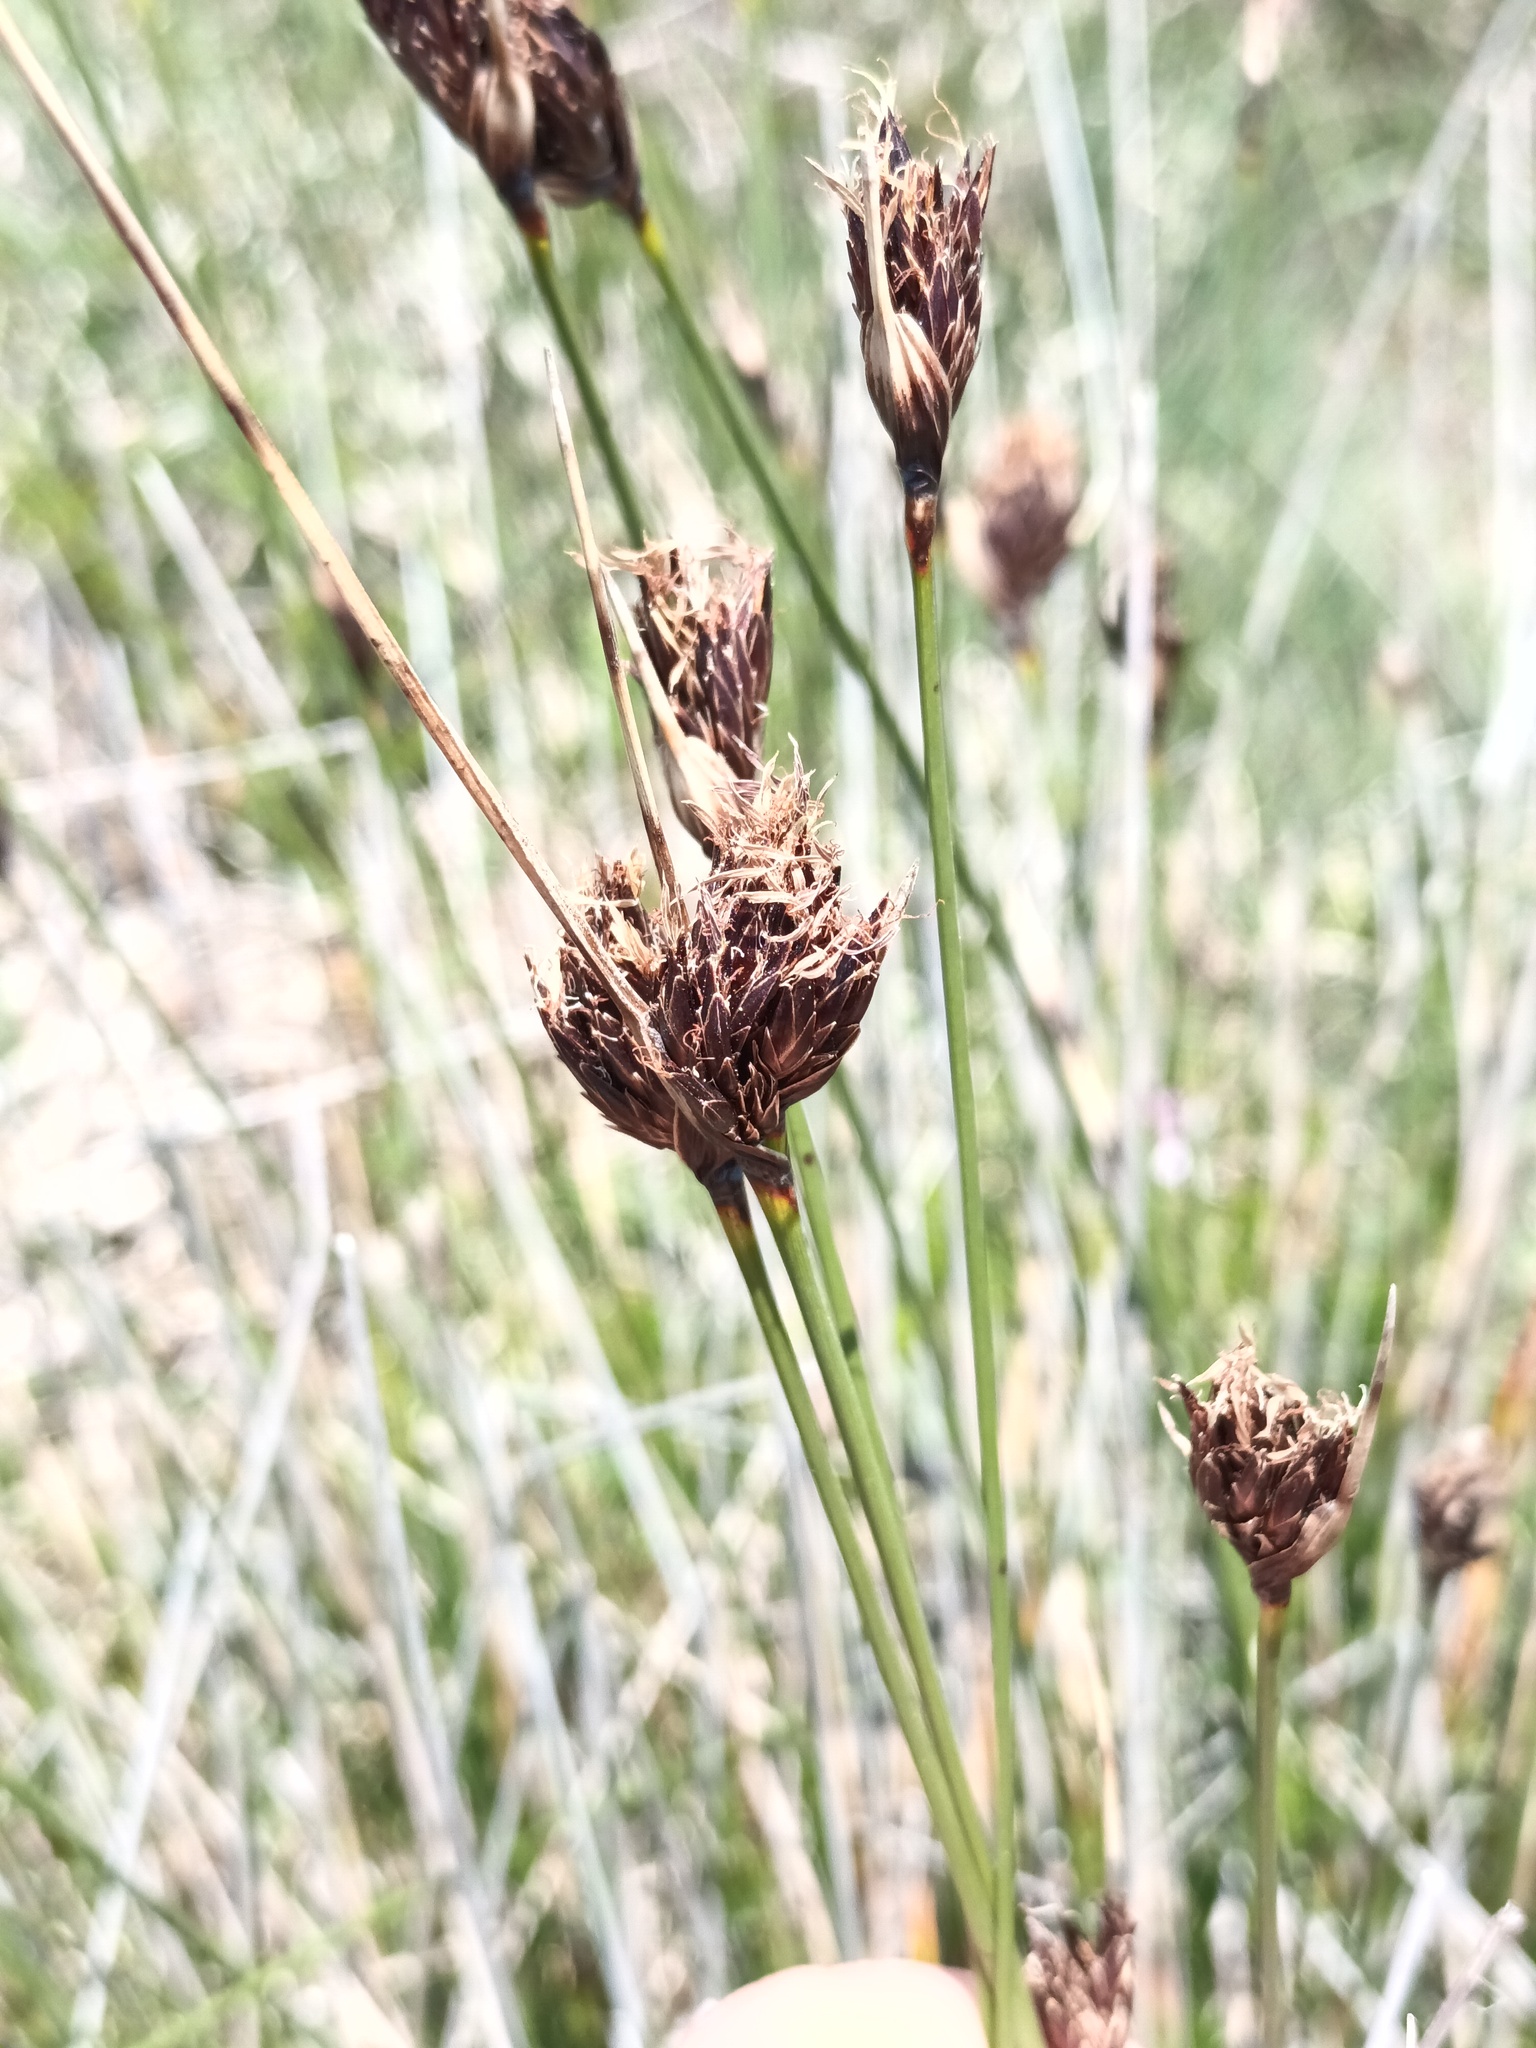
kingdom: Plantae
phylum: Tracheophyta
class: Liliopsida
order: Poales
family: Cyperaceae
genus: Schoenus
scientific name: Schoenus nigricans
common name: Black bog-rush
